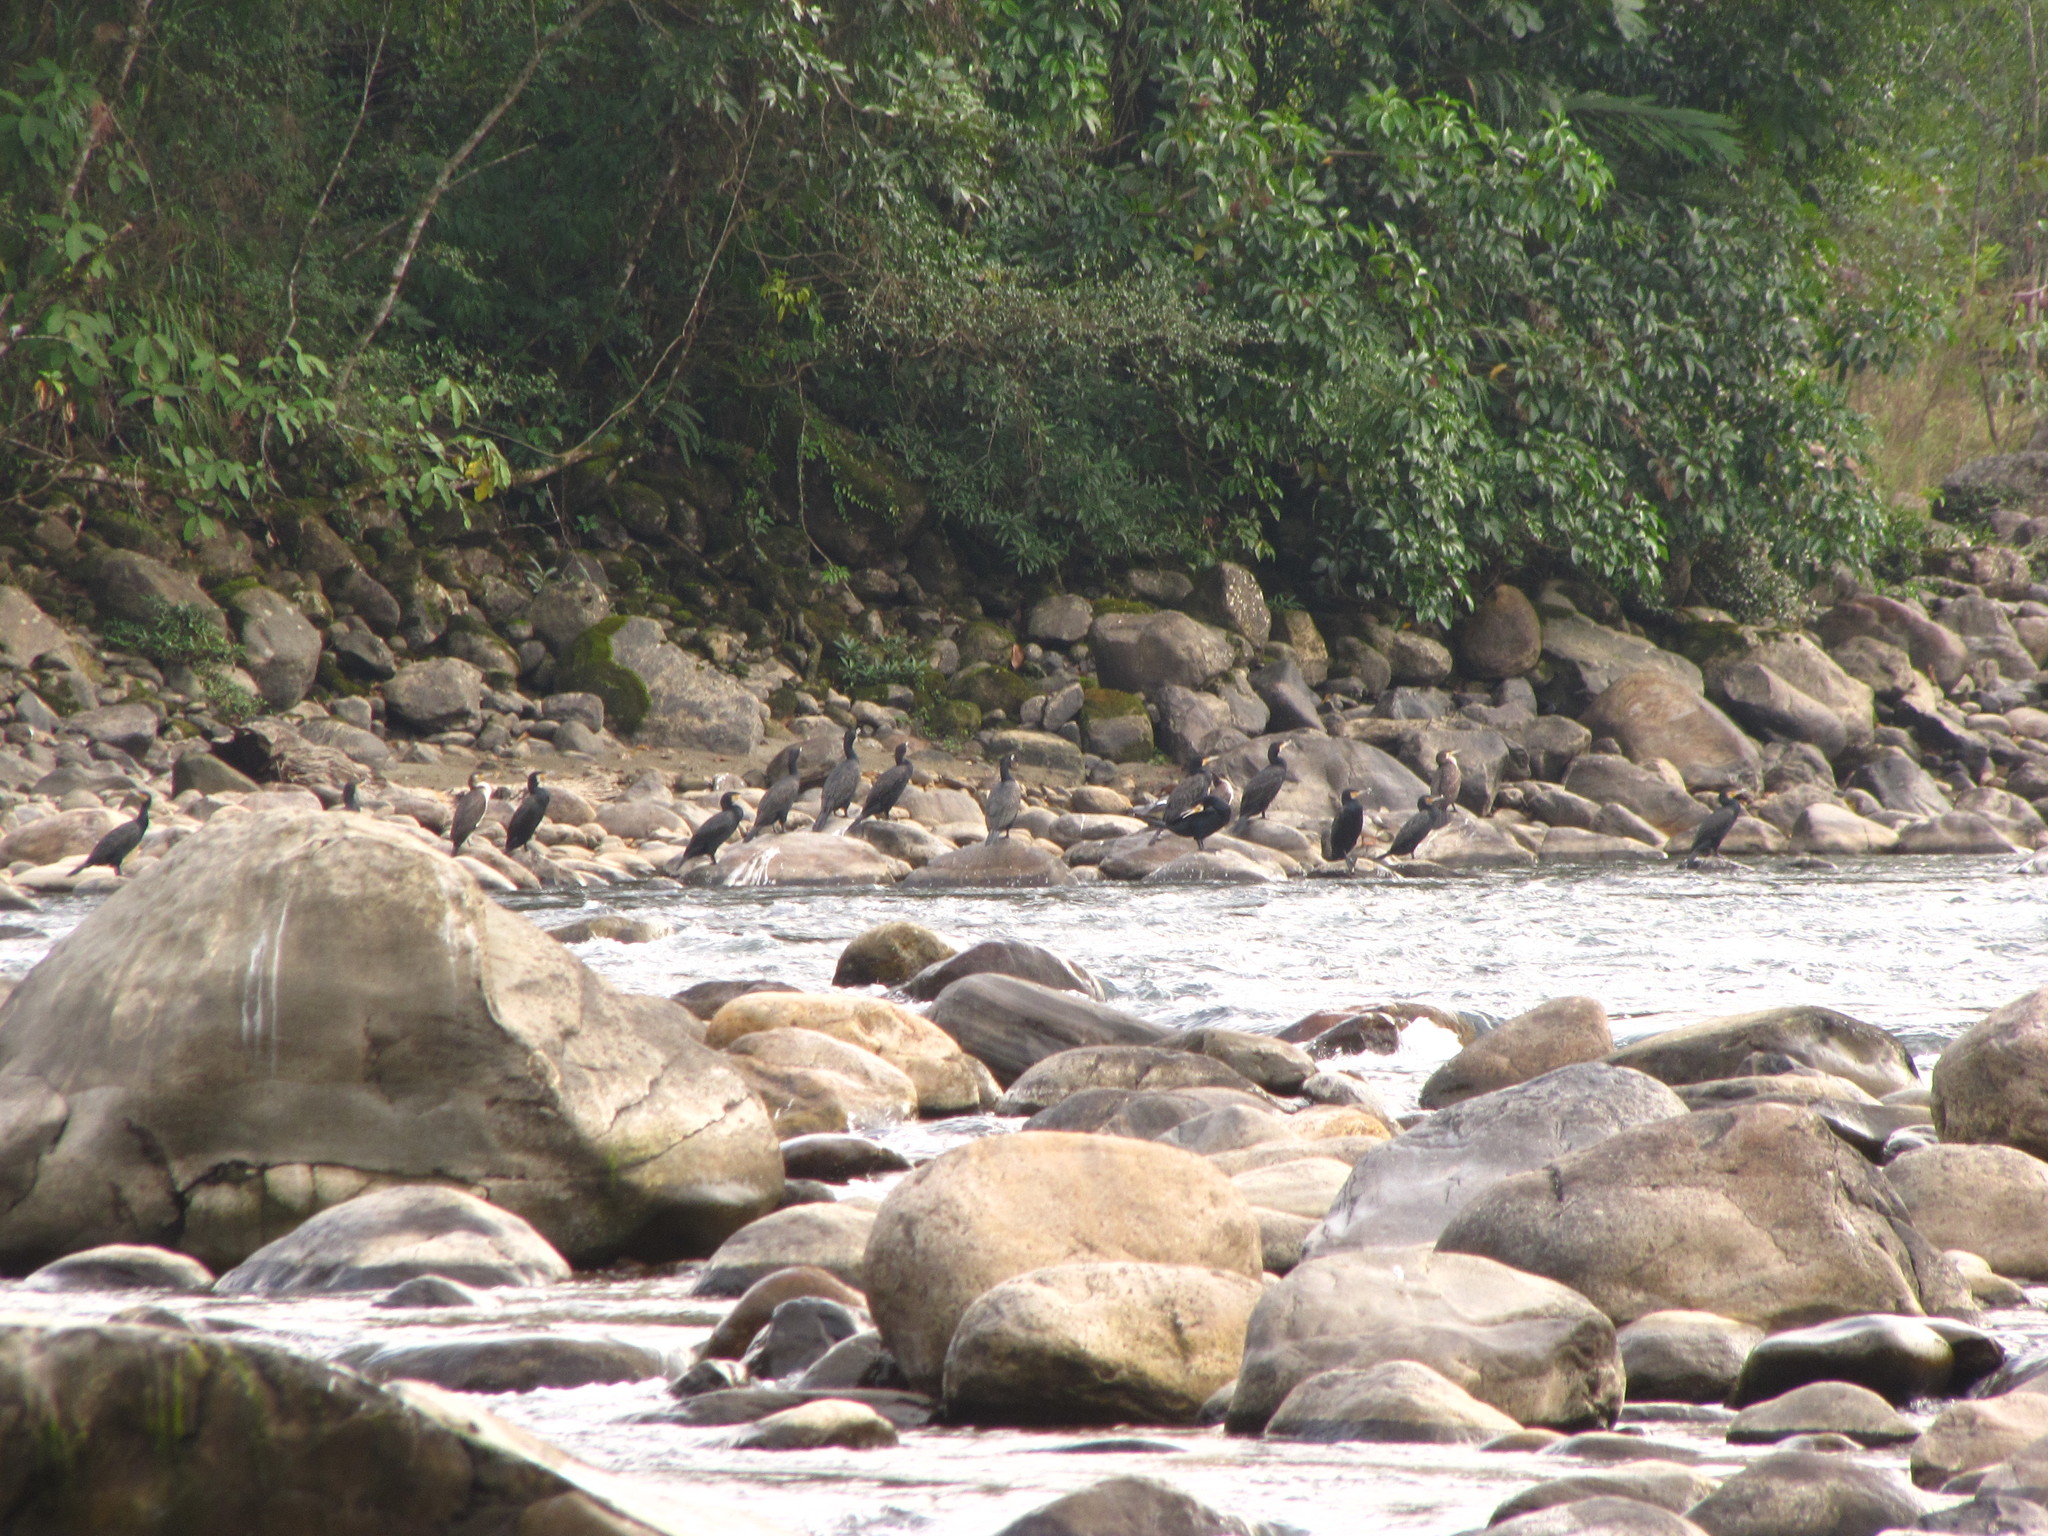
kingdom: Animalia
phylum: Chordata
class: Aves
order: Suliformes
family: Phalacrocoracidae
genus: Phalacrocorax
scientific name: Phalacrocorax carbo
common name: Great cormorant
